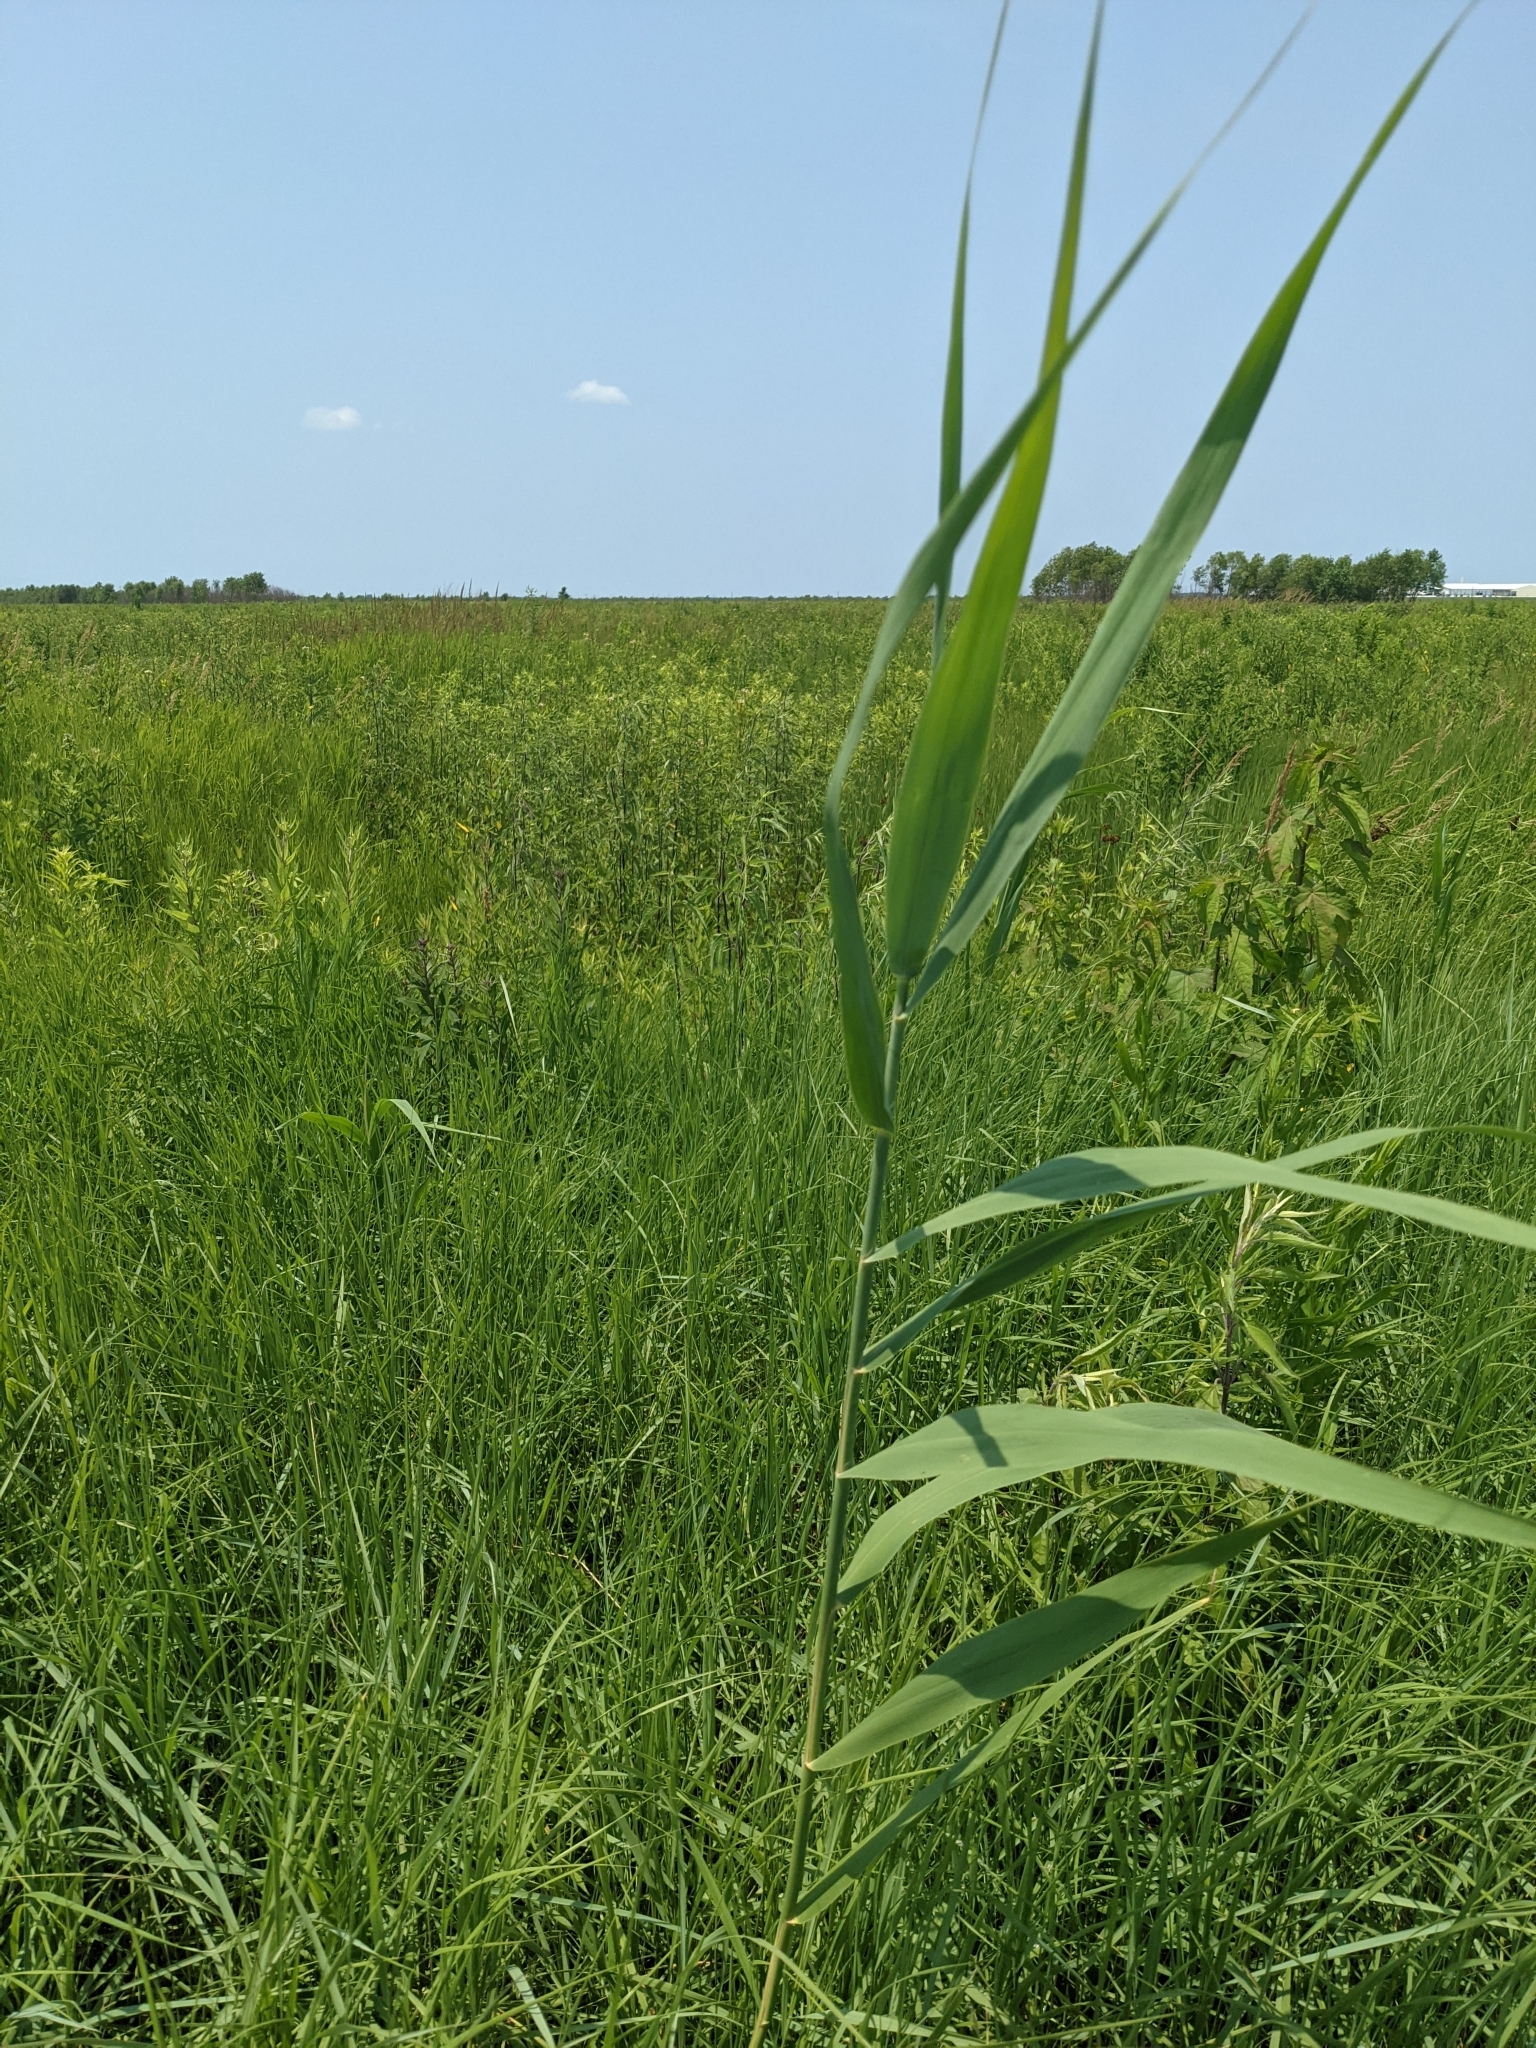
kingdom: Plantae
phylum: Tracheophyta
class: Liliopsida
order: Poales
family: Poaceae
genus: Phragmites
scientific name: Phragmites australis
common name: Common reed
